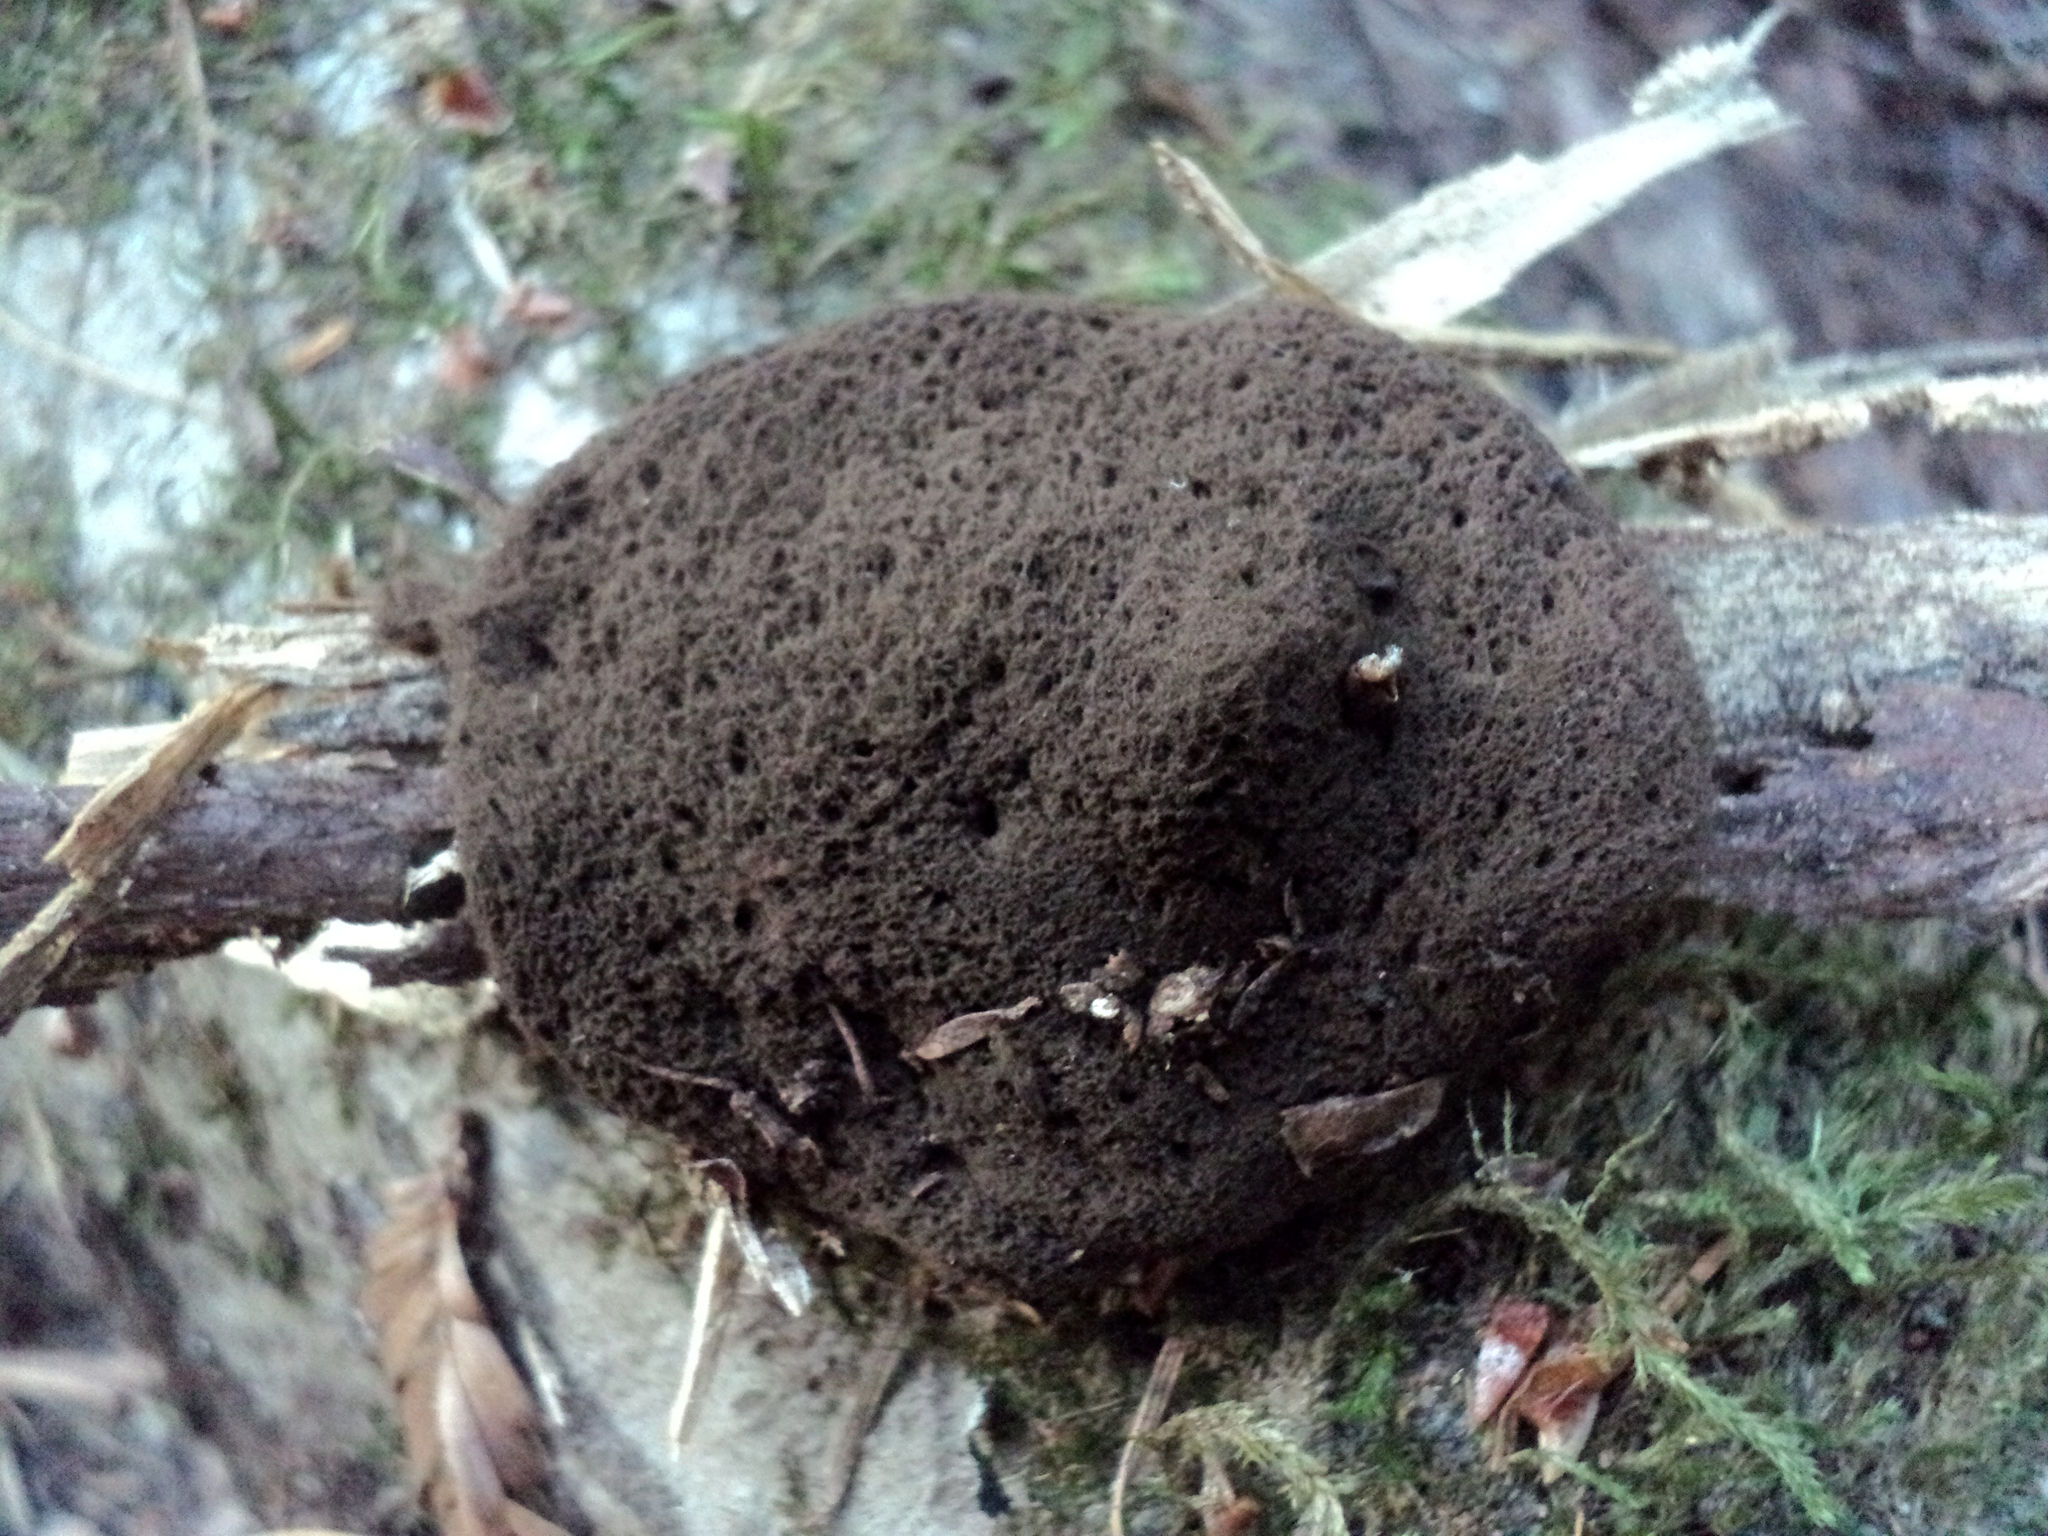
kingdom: Fungi
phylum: Basidiomycota
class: Agaricomycetes
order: Geastrales
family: Geastraceae
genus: Schenella
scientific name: Schenella microspora
